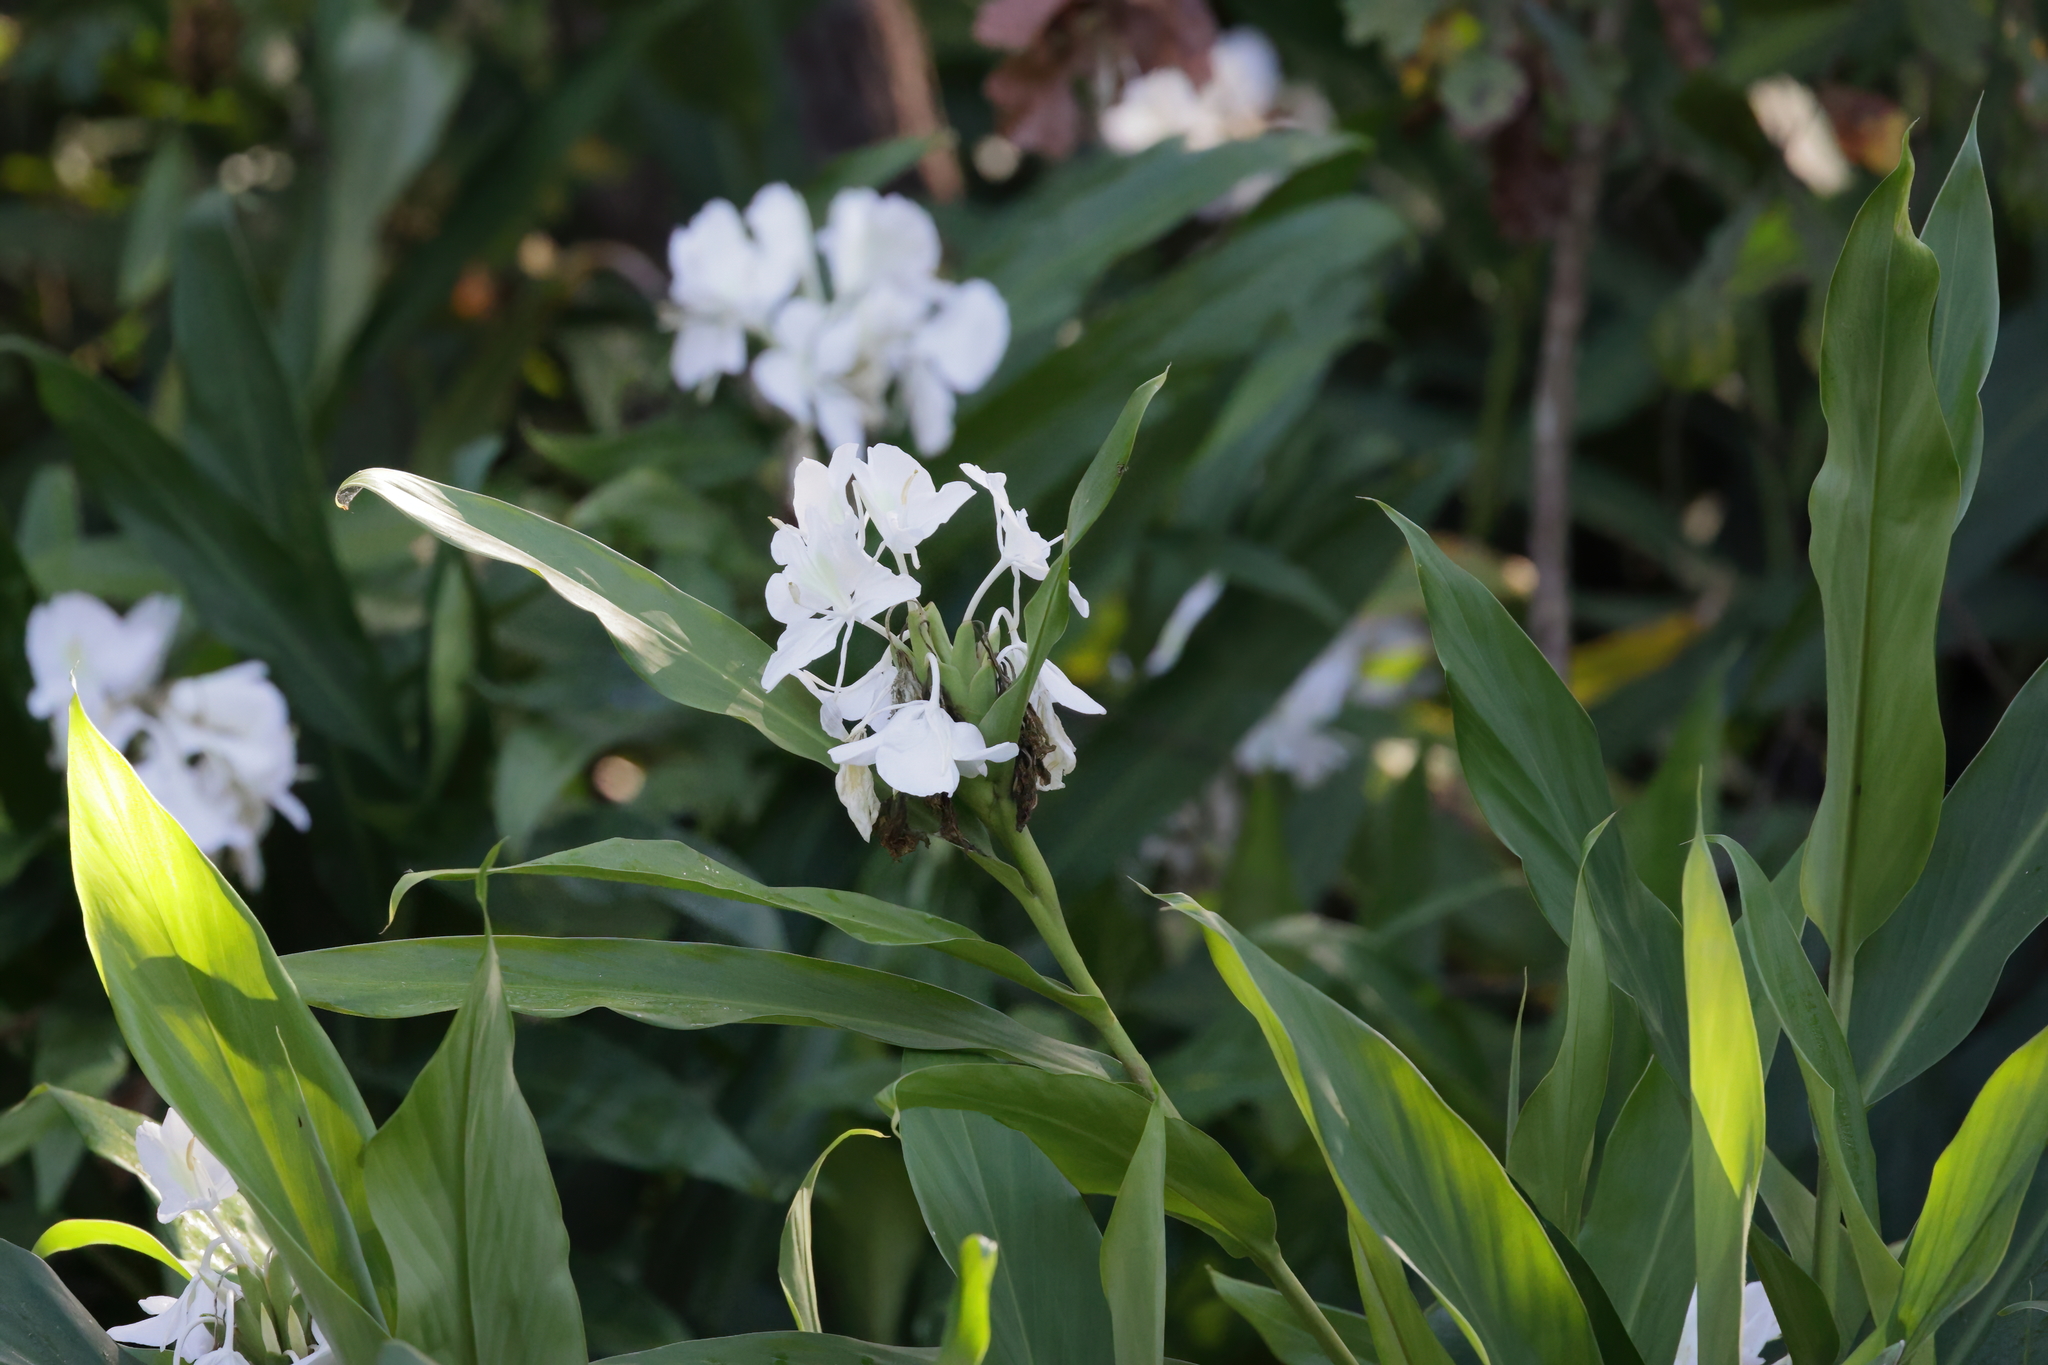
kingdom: Plantae
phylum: Tracheophyta
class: Liliopsida
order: Zingiberales
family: Zingiberaceae
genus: Hedychium
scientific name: Hedychium coronarium
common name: White garland-lily
